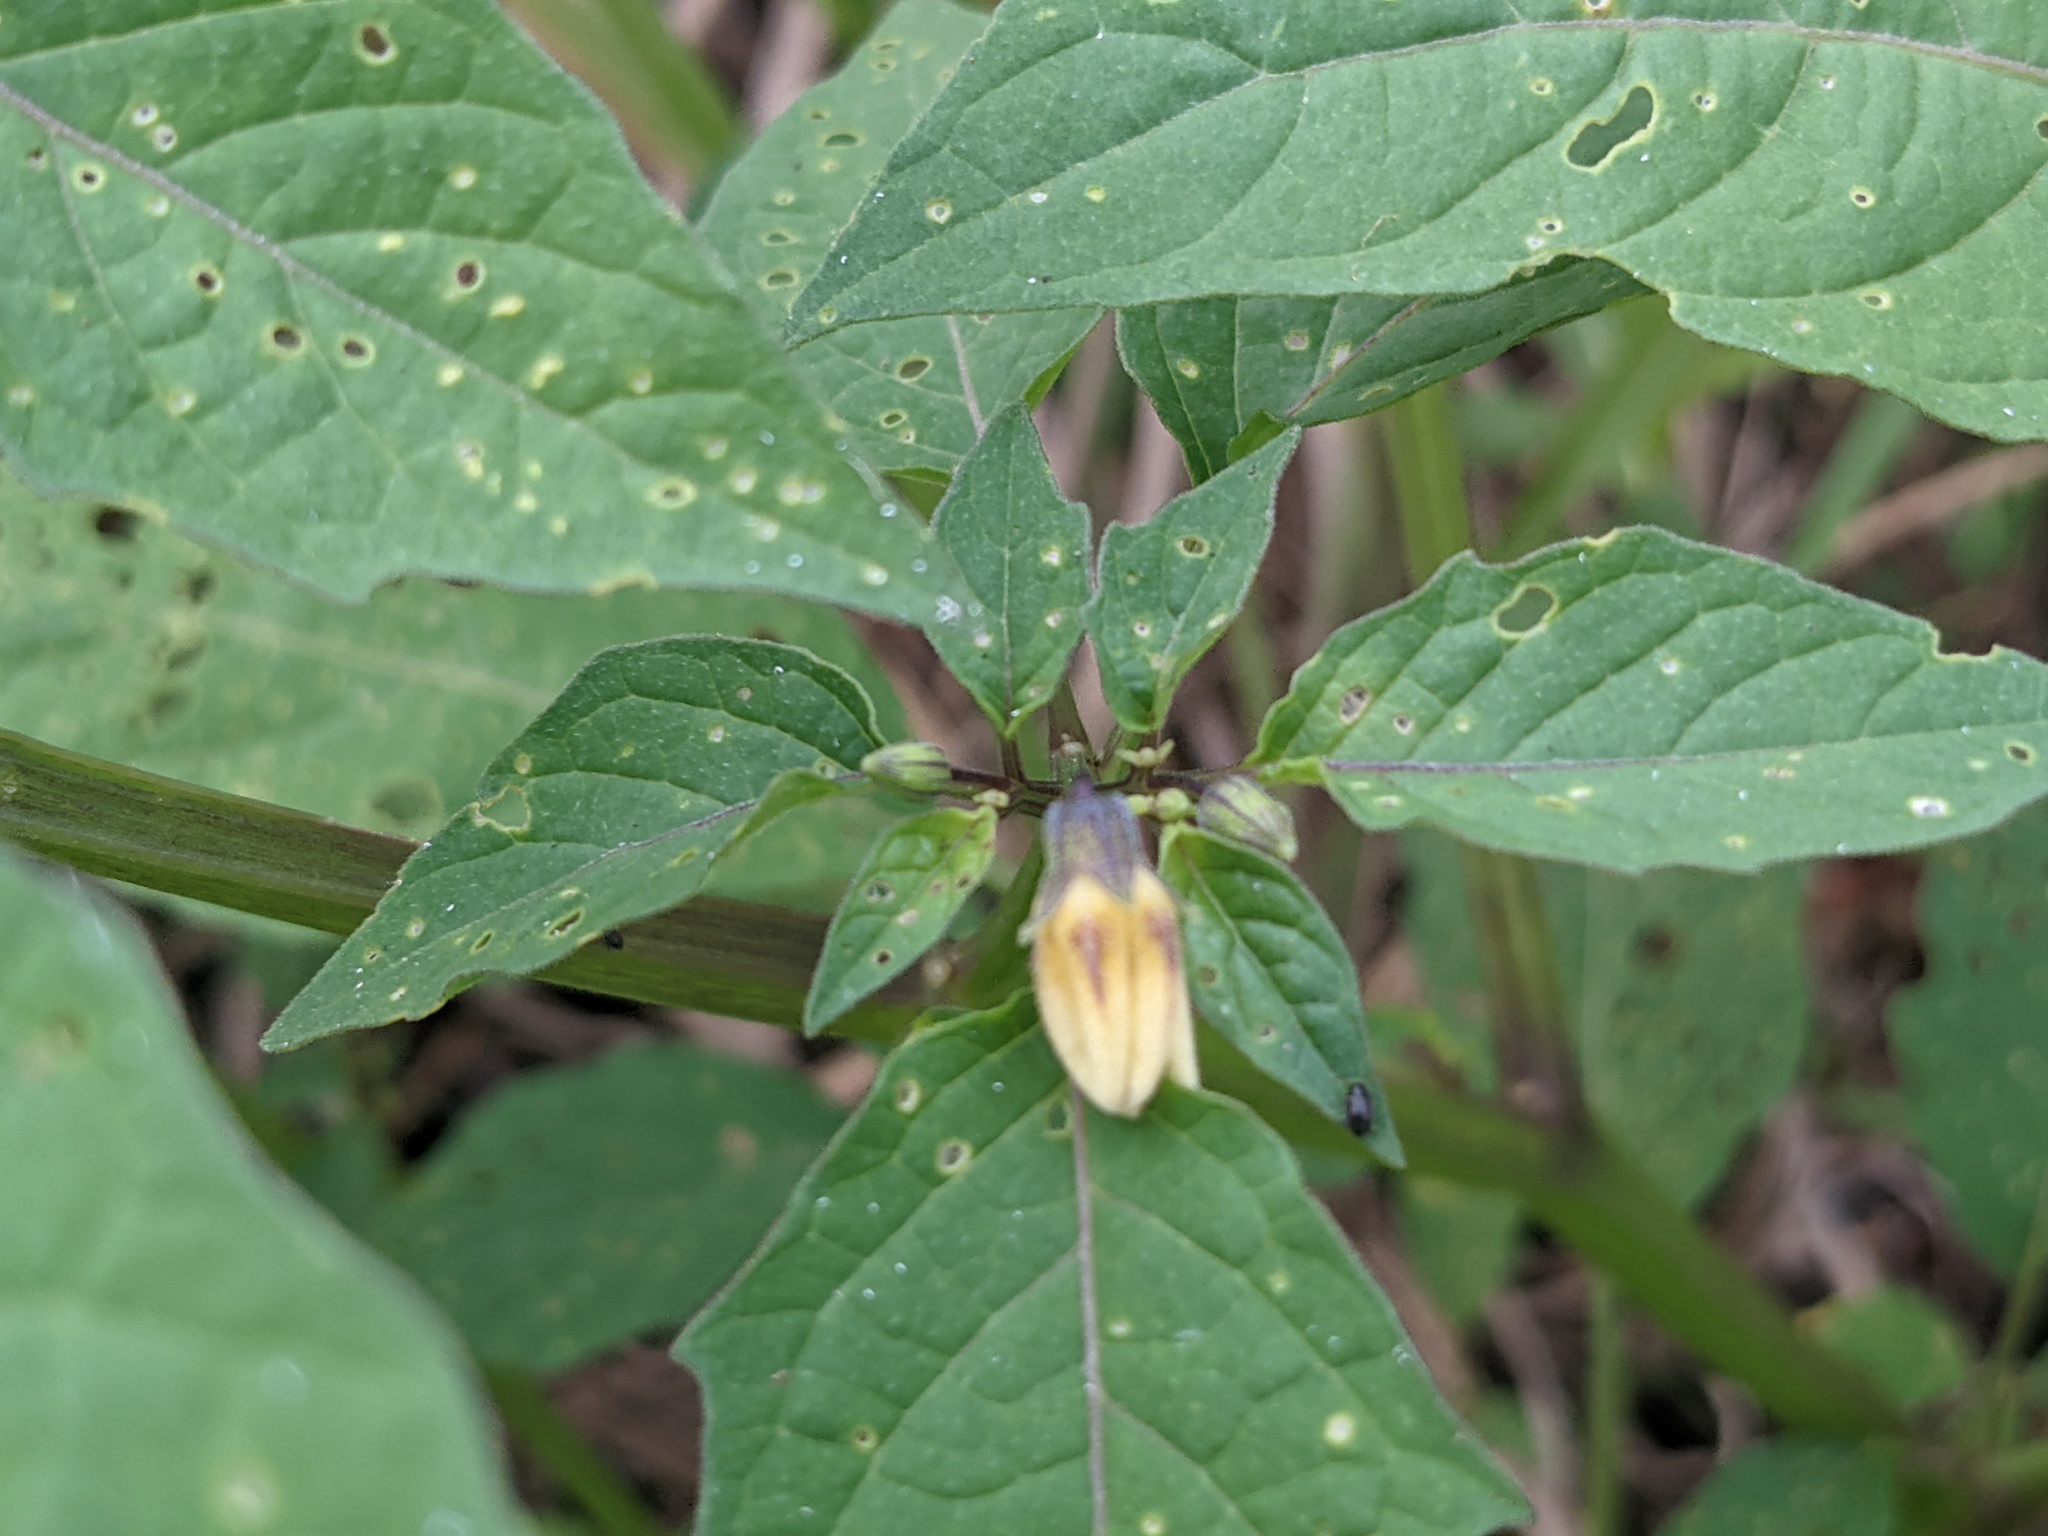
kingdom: Plantae
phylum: Tracheophyta
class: Magnoliopsida
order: Solanales
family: Solanaceae
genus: Physalis
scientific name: Physalis angulata
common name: Angular winter-cherry
